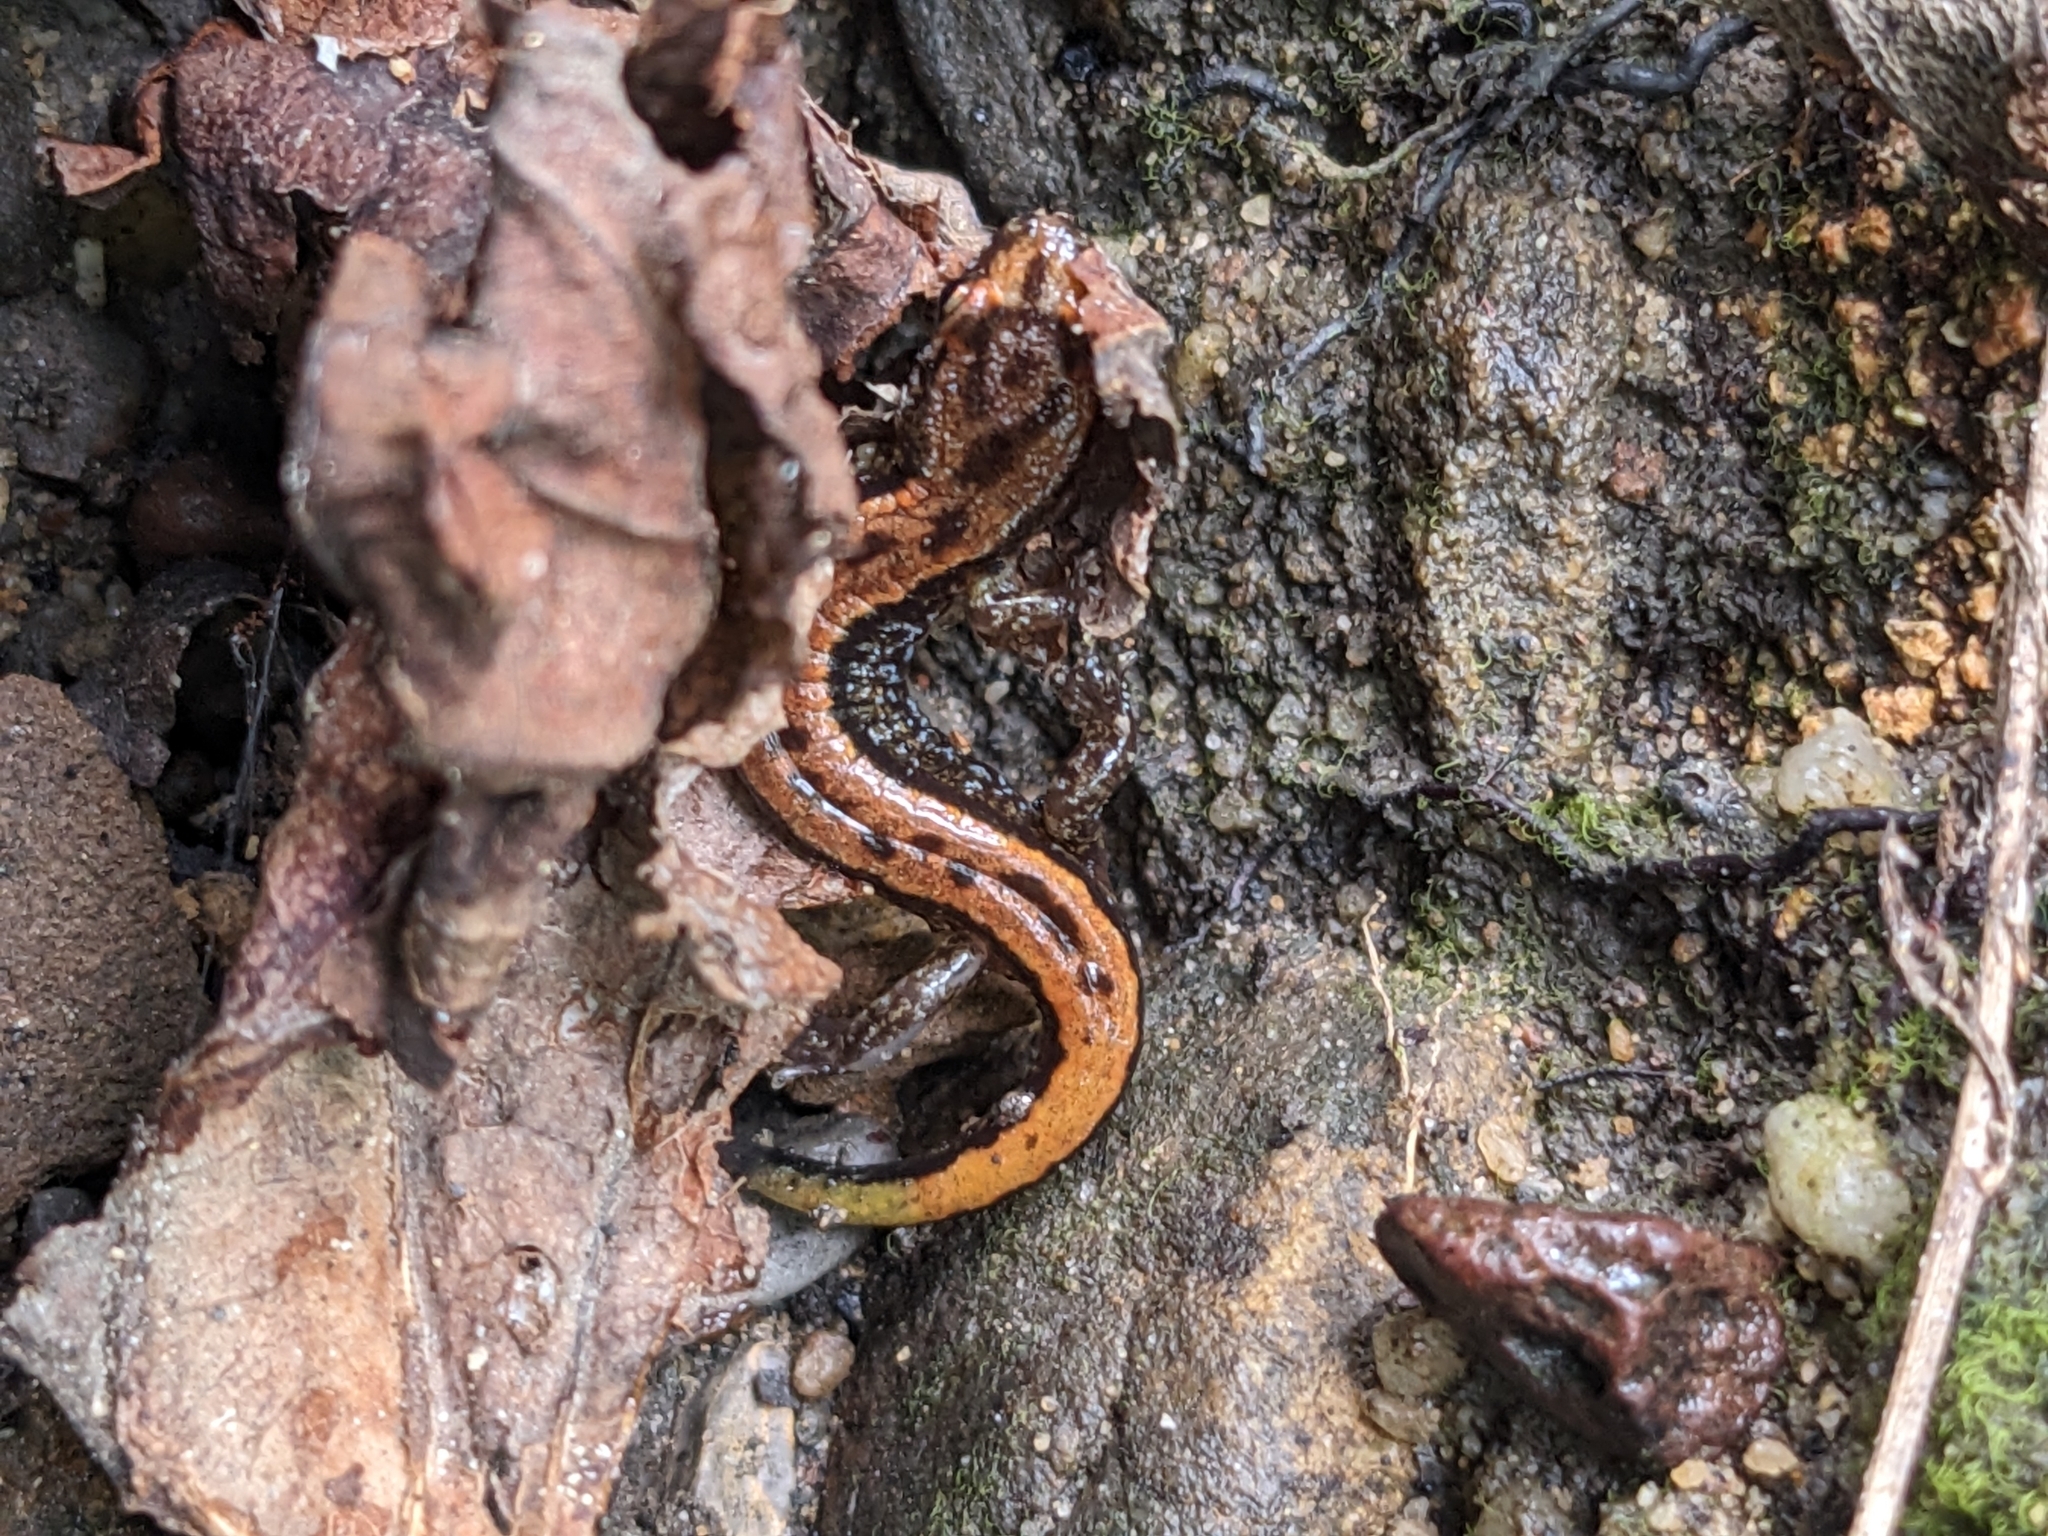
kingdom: Animalia
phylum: Chordata
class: Amphibia
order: Caudata
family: Plethodontidae
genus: Desmognathus
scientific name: Desmognathus ochrophaeus
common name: Allegheny mountain dusky salamander
